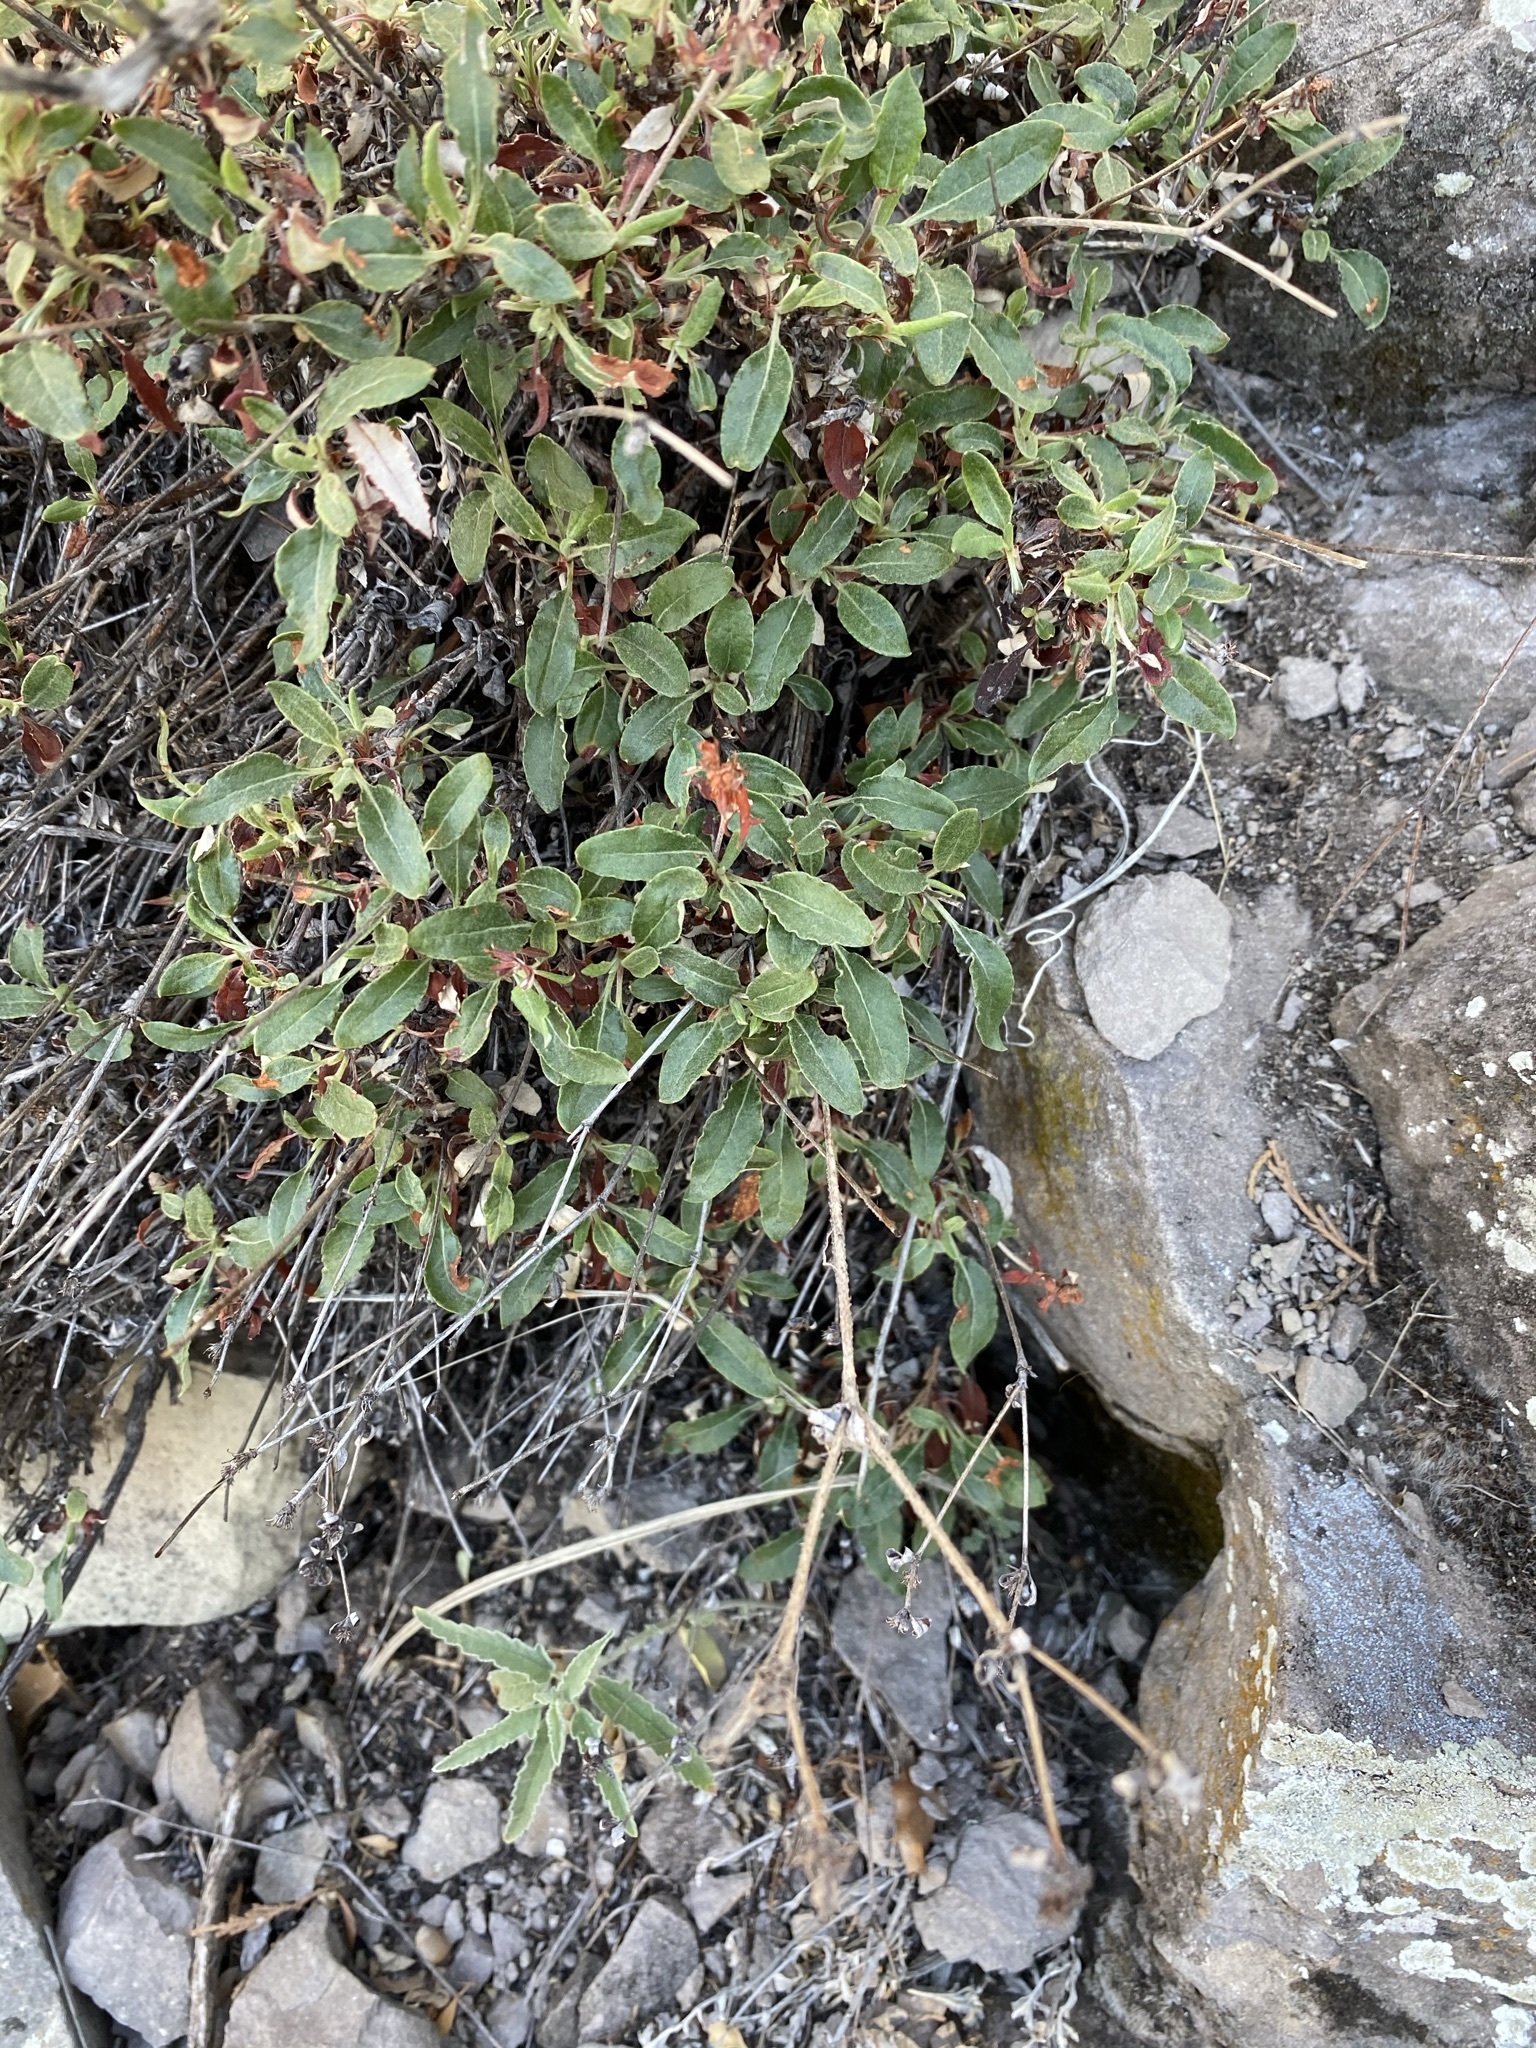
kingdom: Plantae
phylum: Tracheophyta
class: Magnoliopsida
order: Caryophyllales
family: Polygonaceae
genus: Eriogonum
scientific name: Eriogonum jamesii
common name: Antelope-sage
